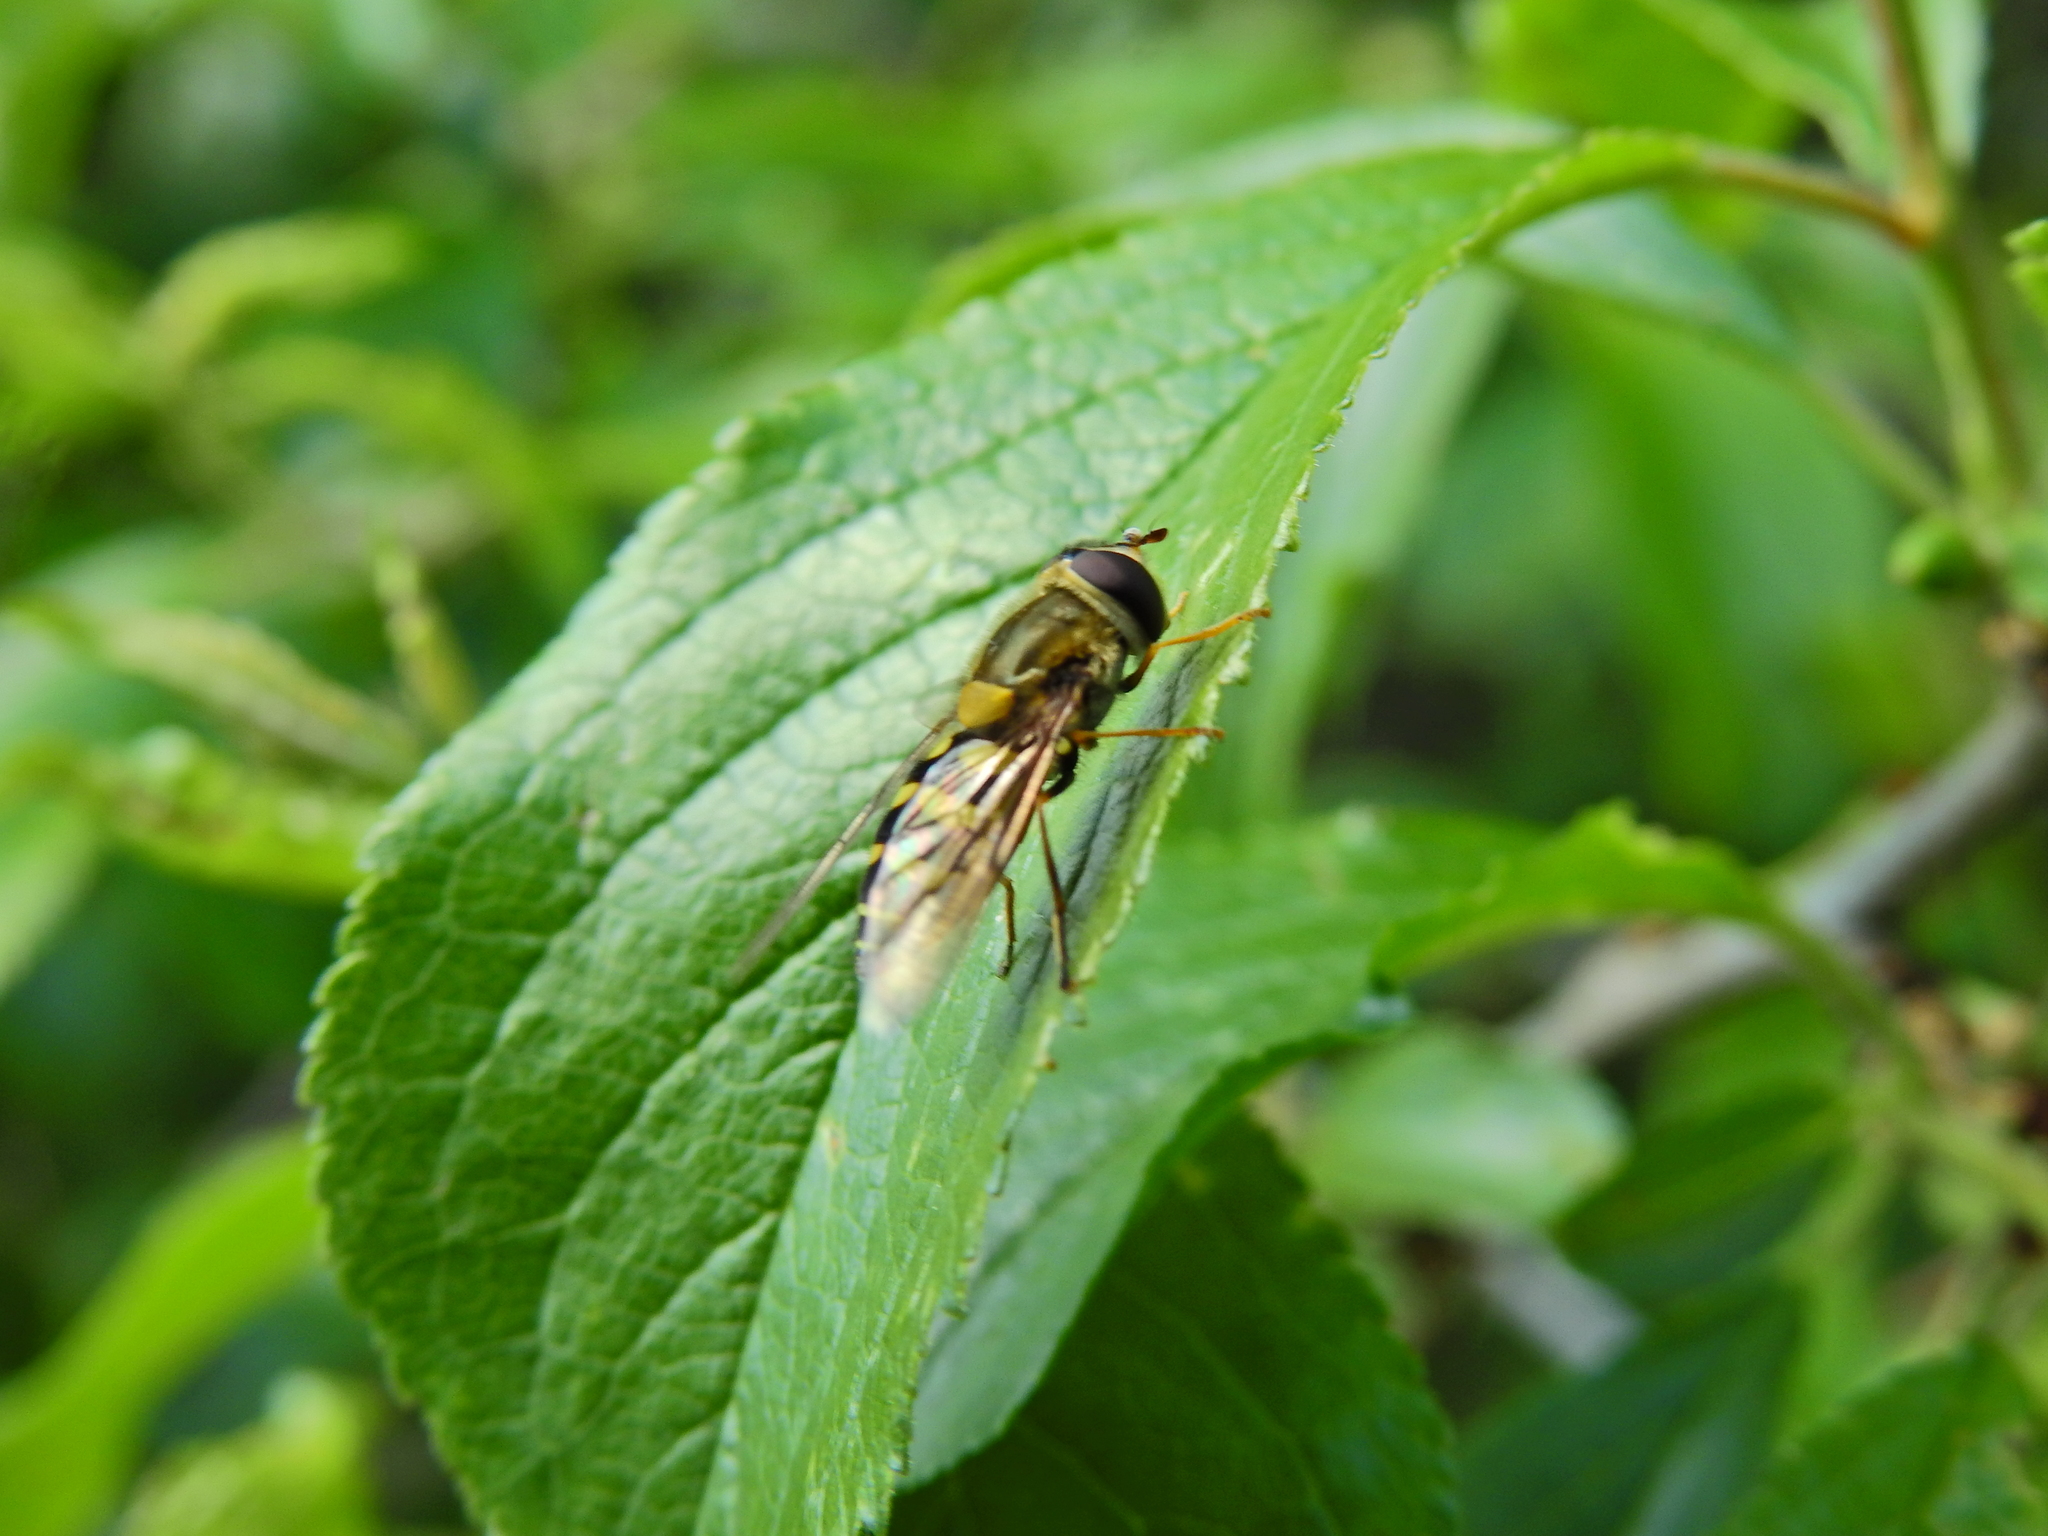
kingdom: Animalia
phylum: Arthropoda
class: Insecta
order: Diptera
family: Syrphidae
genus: Syrphus
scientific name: Syrphus
